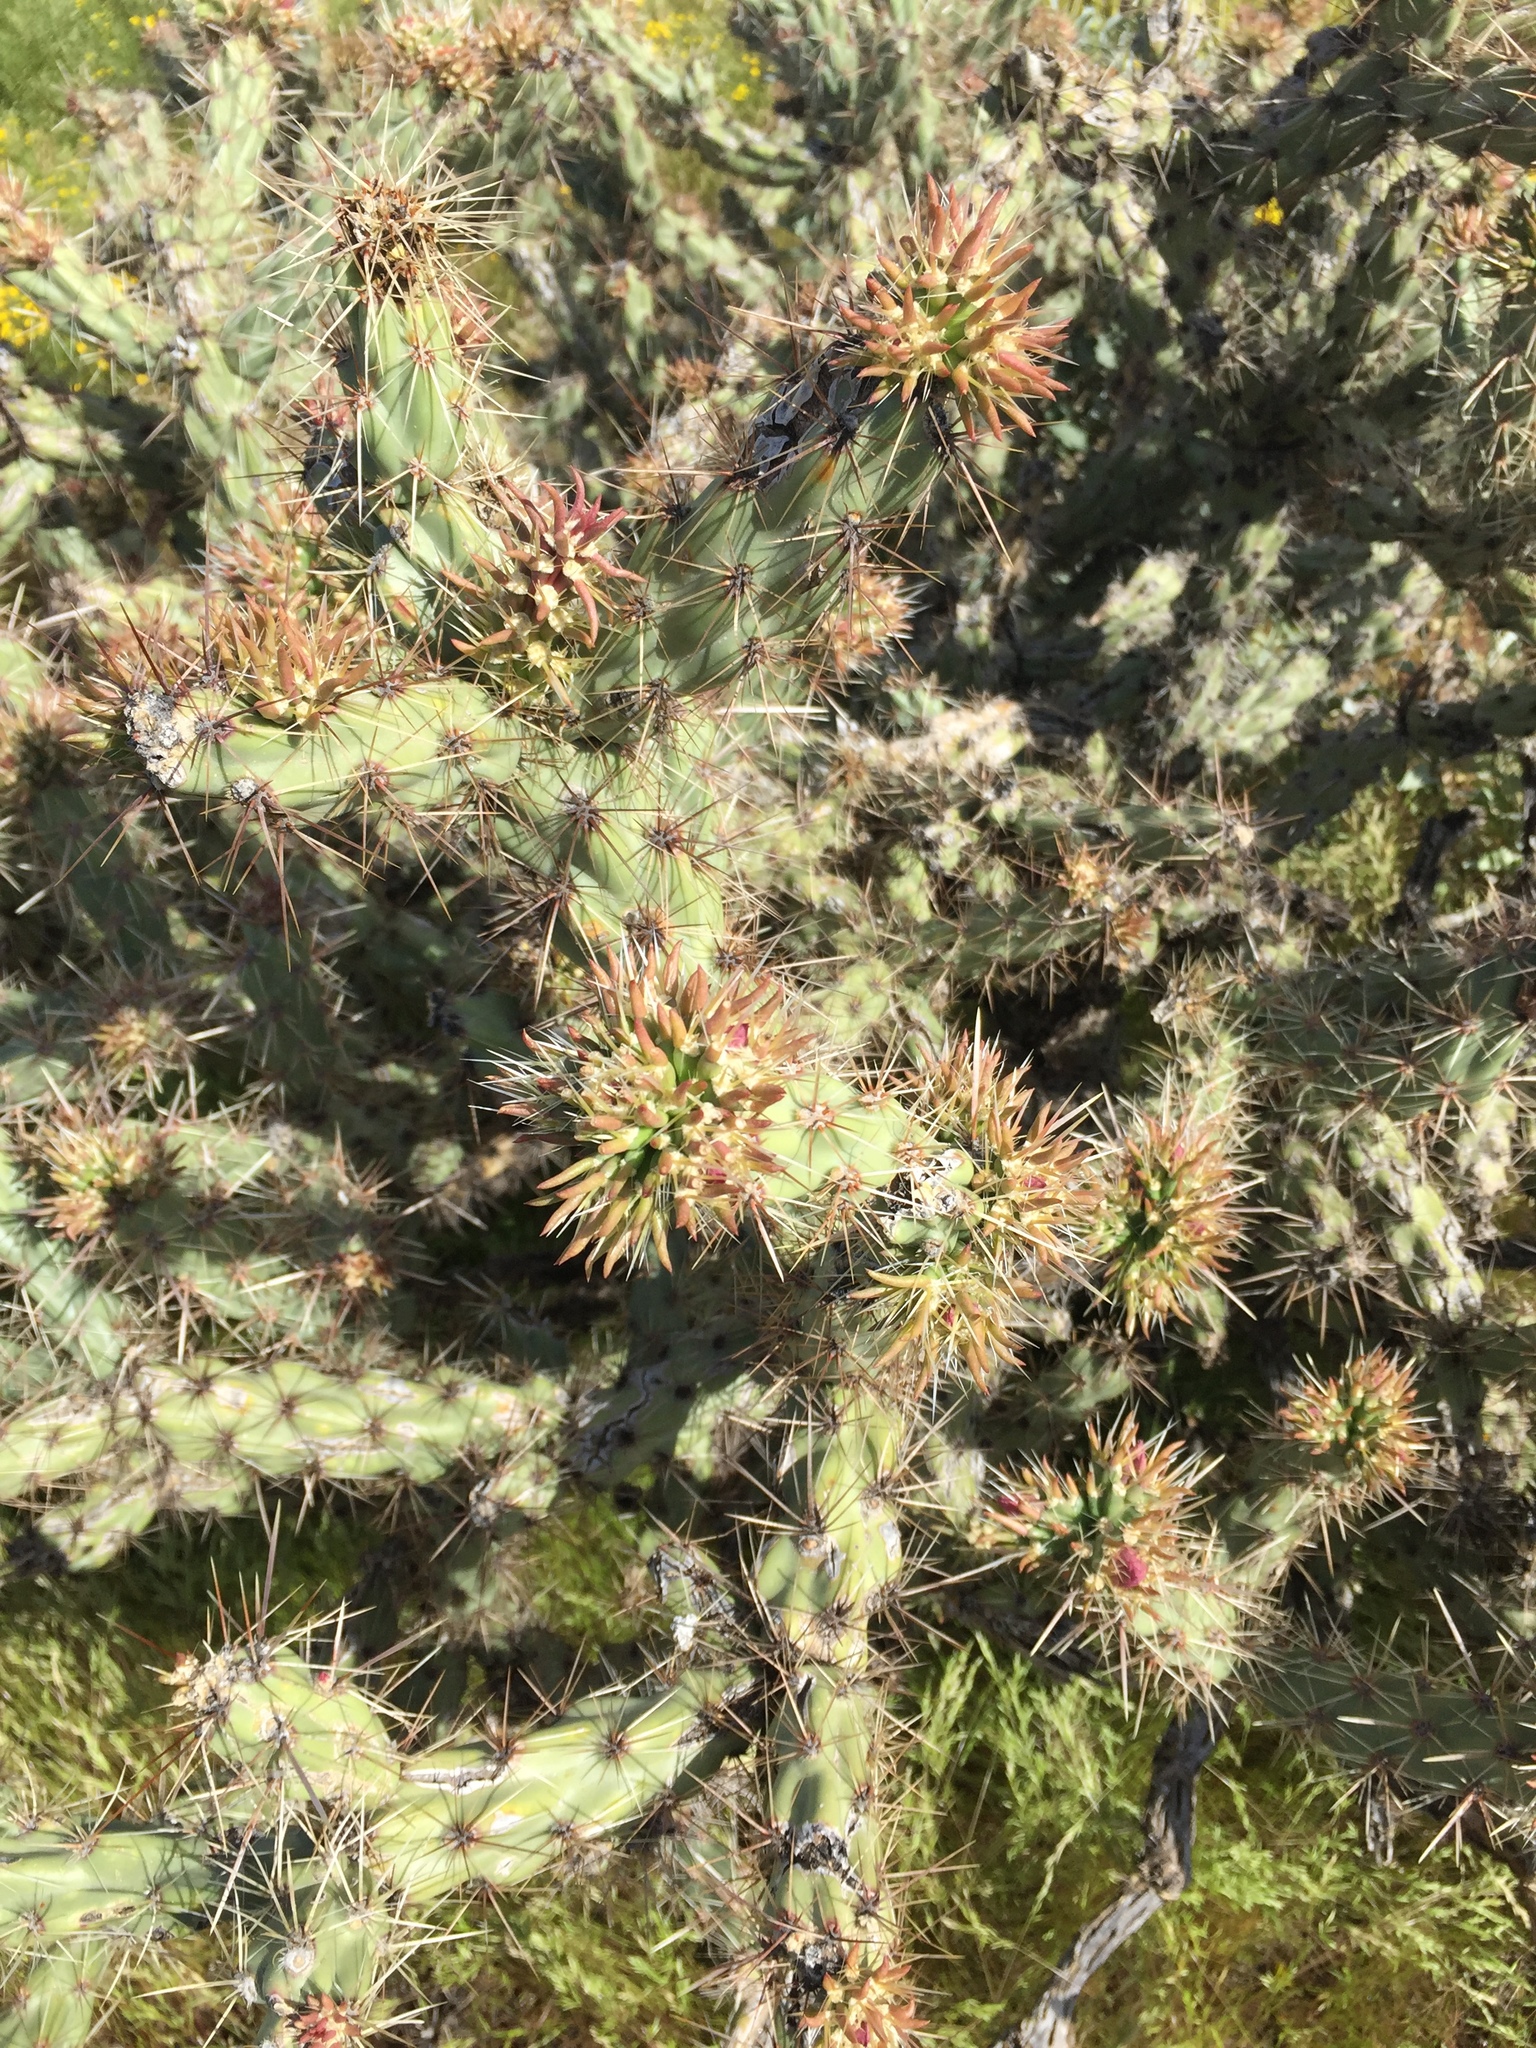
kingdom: Plantae
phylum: Tracheophyta
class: Magnoliopsida
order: Caryophyllales
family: Cactaceae
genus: Cylindropuntia
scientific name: Cylindropuntia acanthocarpa
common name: Buckhorn cholla
